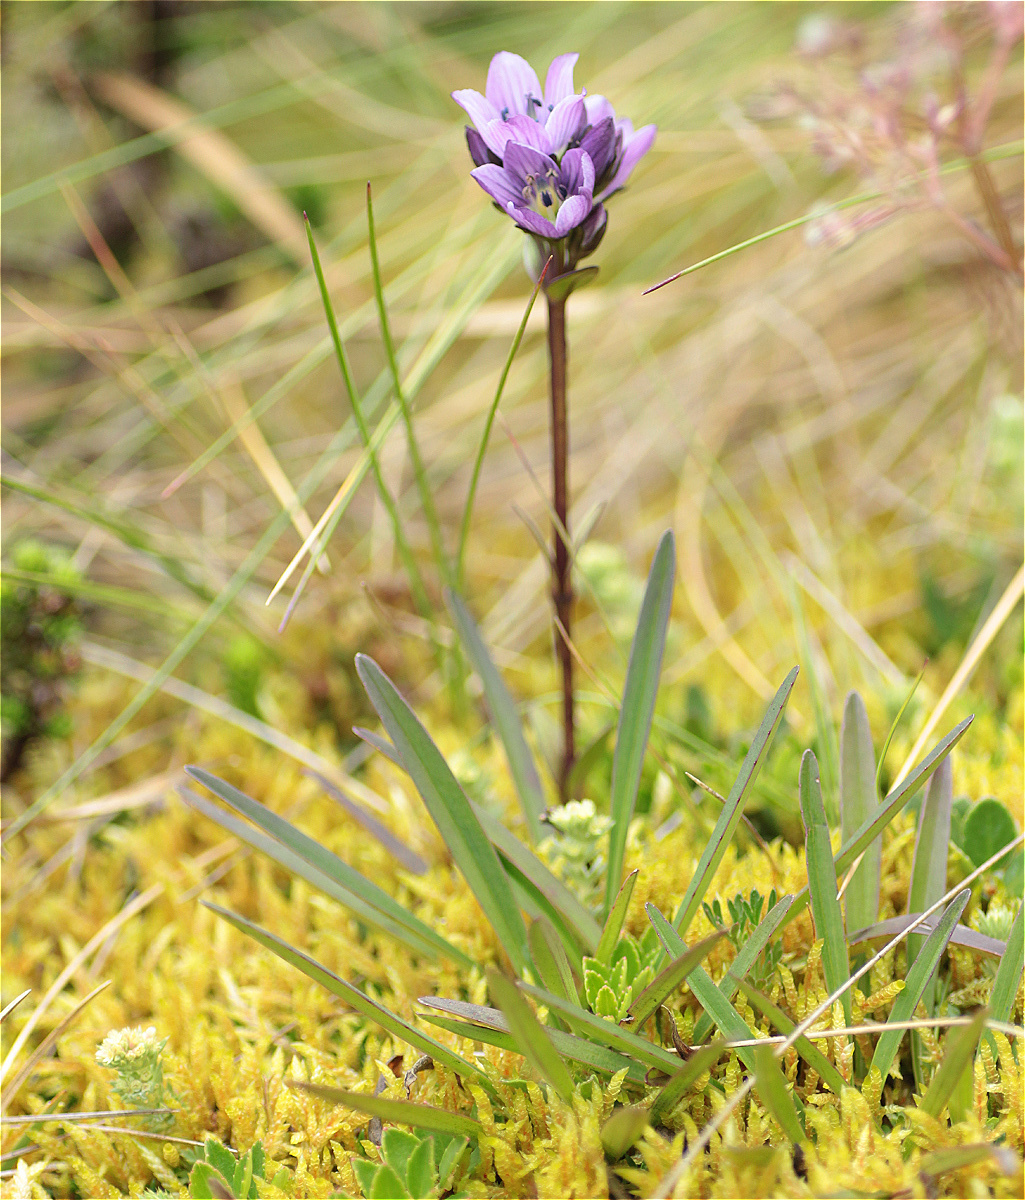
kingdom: Plantae
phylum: Tracheophyta
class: Magnoliopsida
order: Gentianales
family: Gentianaceae
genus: Gentianella
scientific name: Gentianella corymbosa
